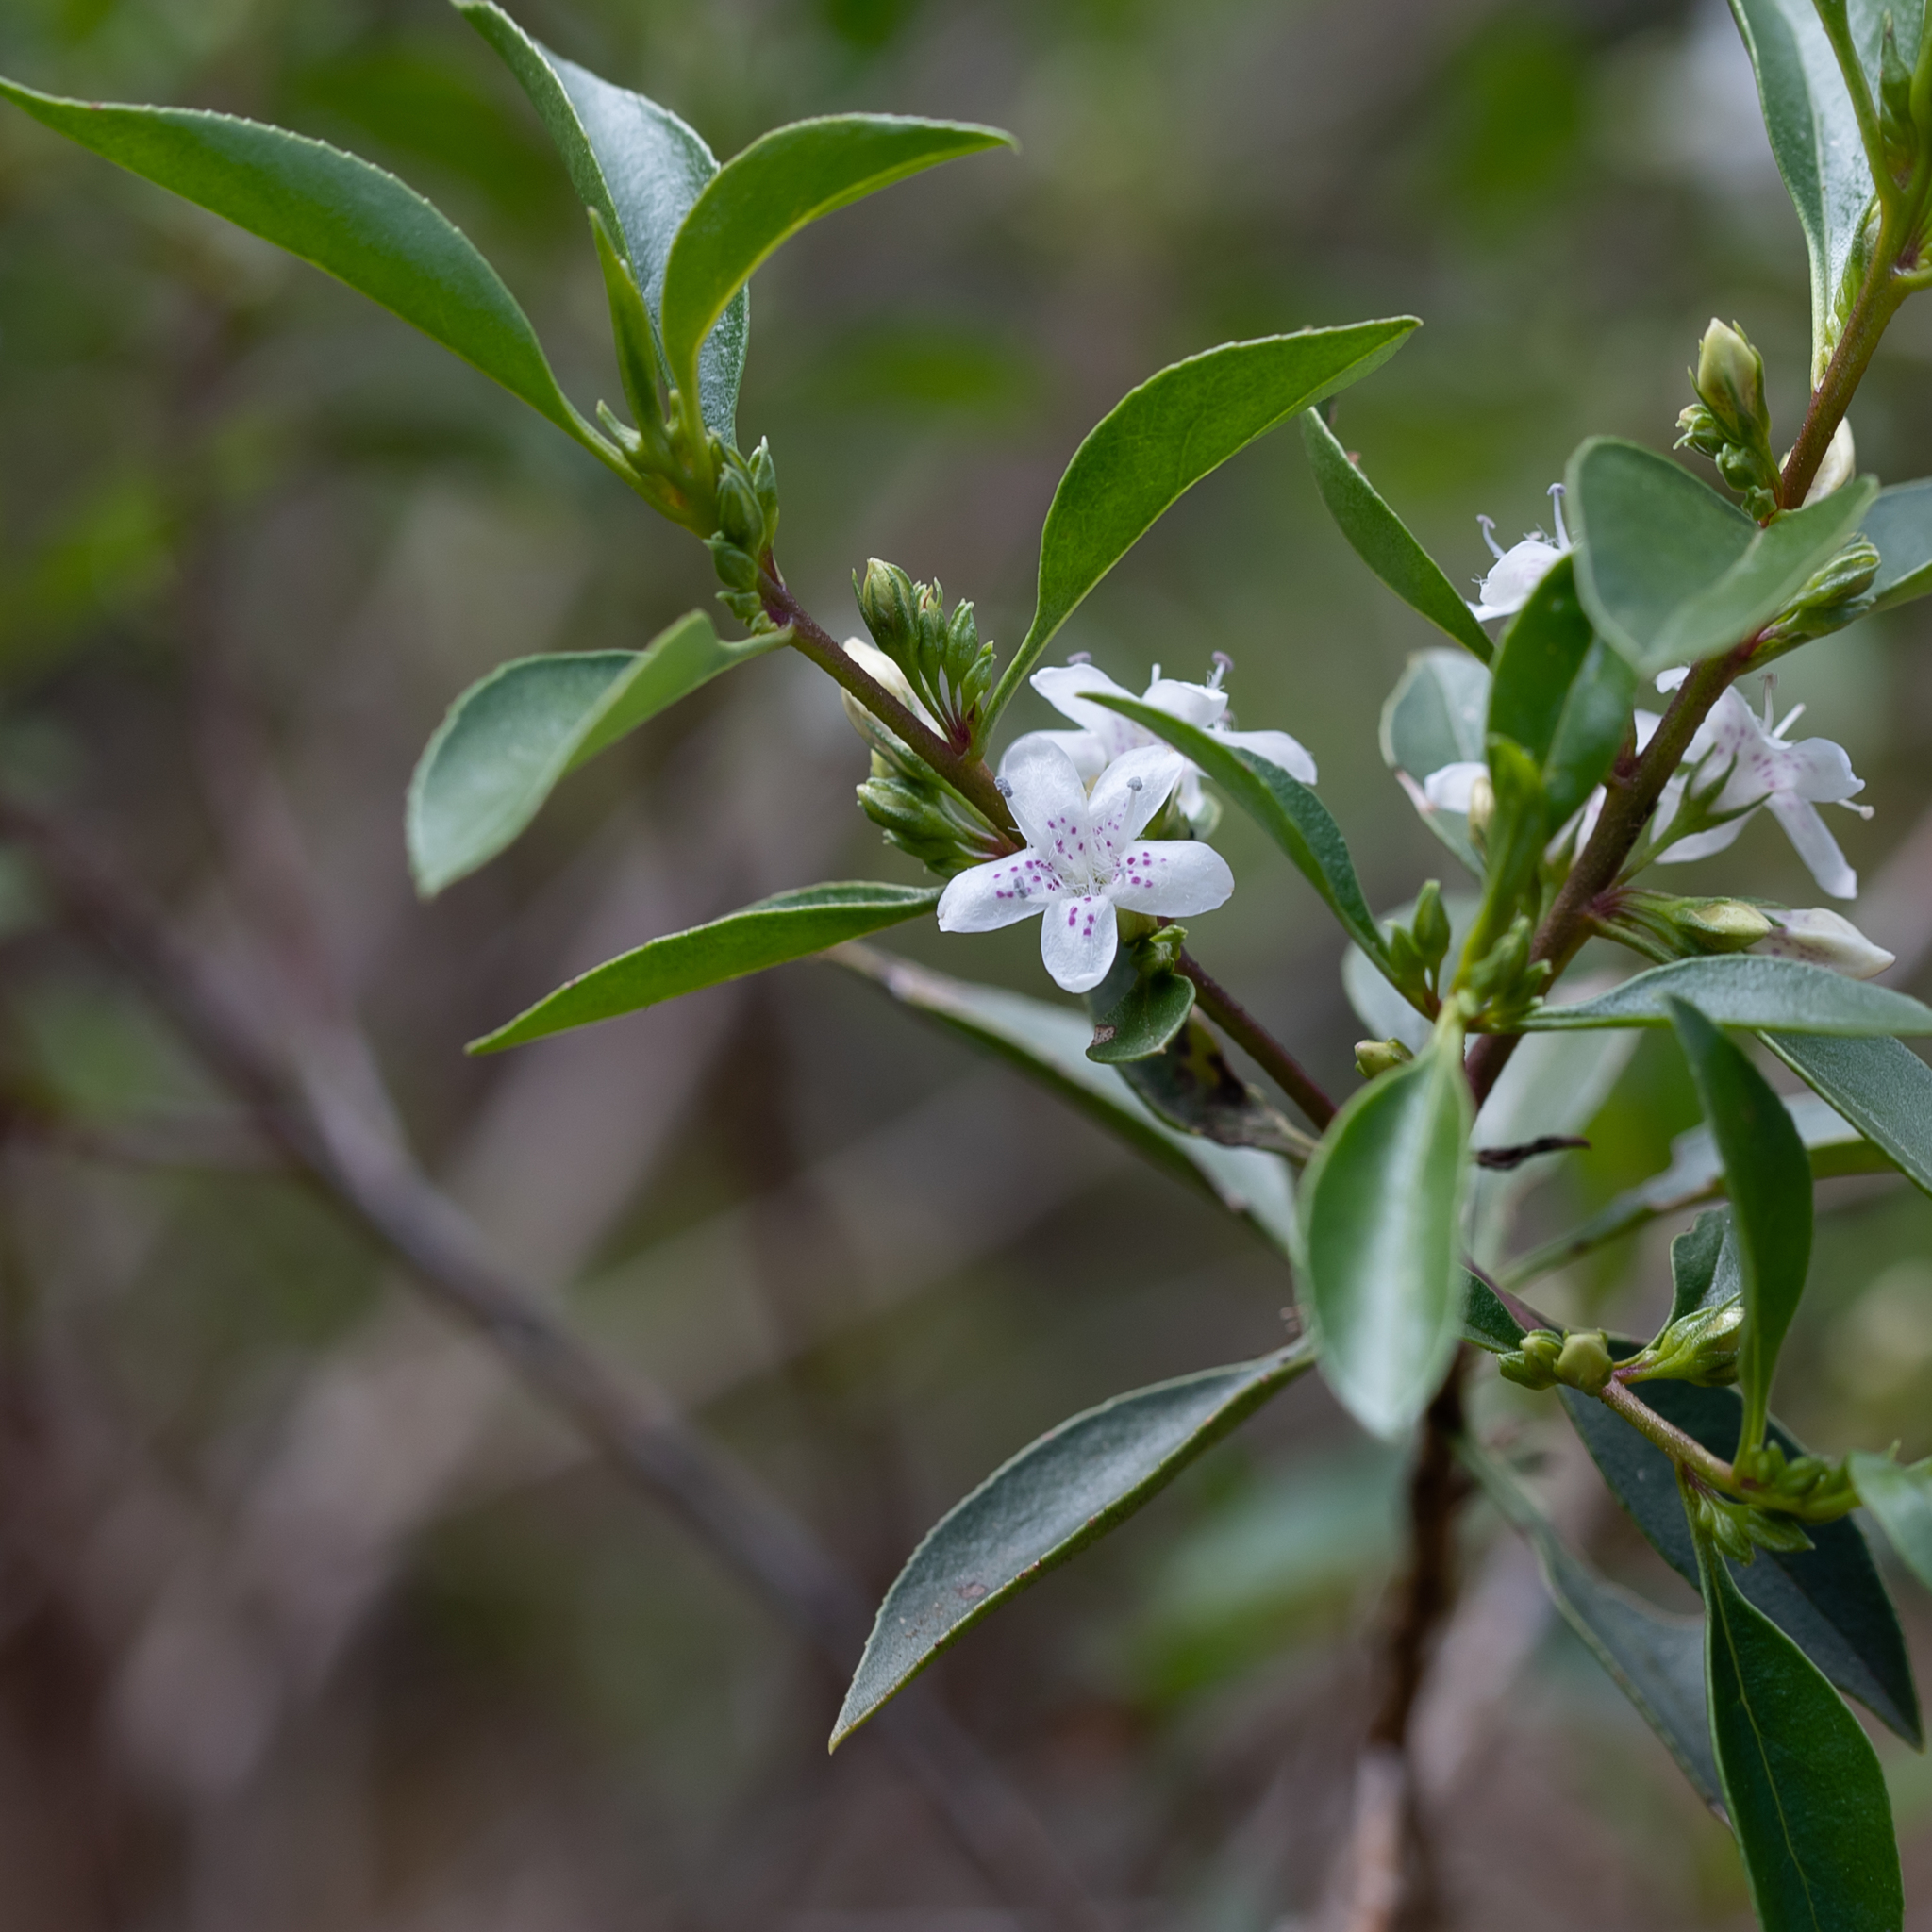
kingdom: Plantae
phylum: Tracheophyta
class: Magnoliopsida
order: Lamiales
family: Scrophulariaceae
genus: Myoporum
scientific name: Myoporum petiolatum
